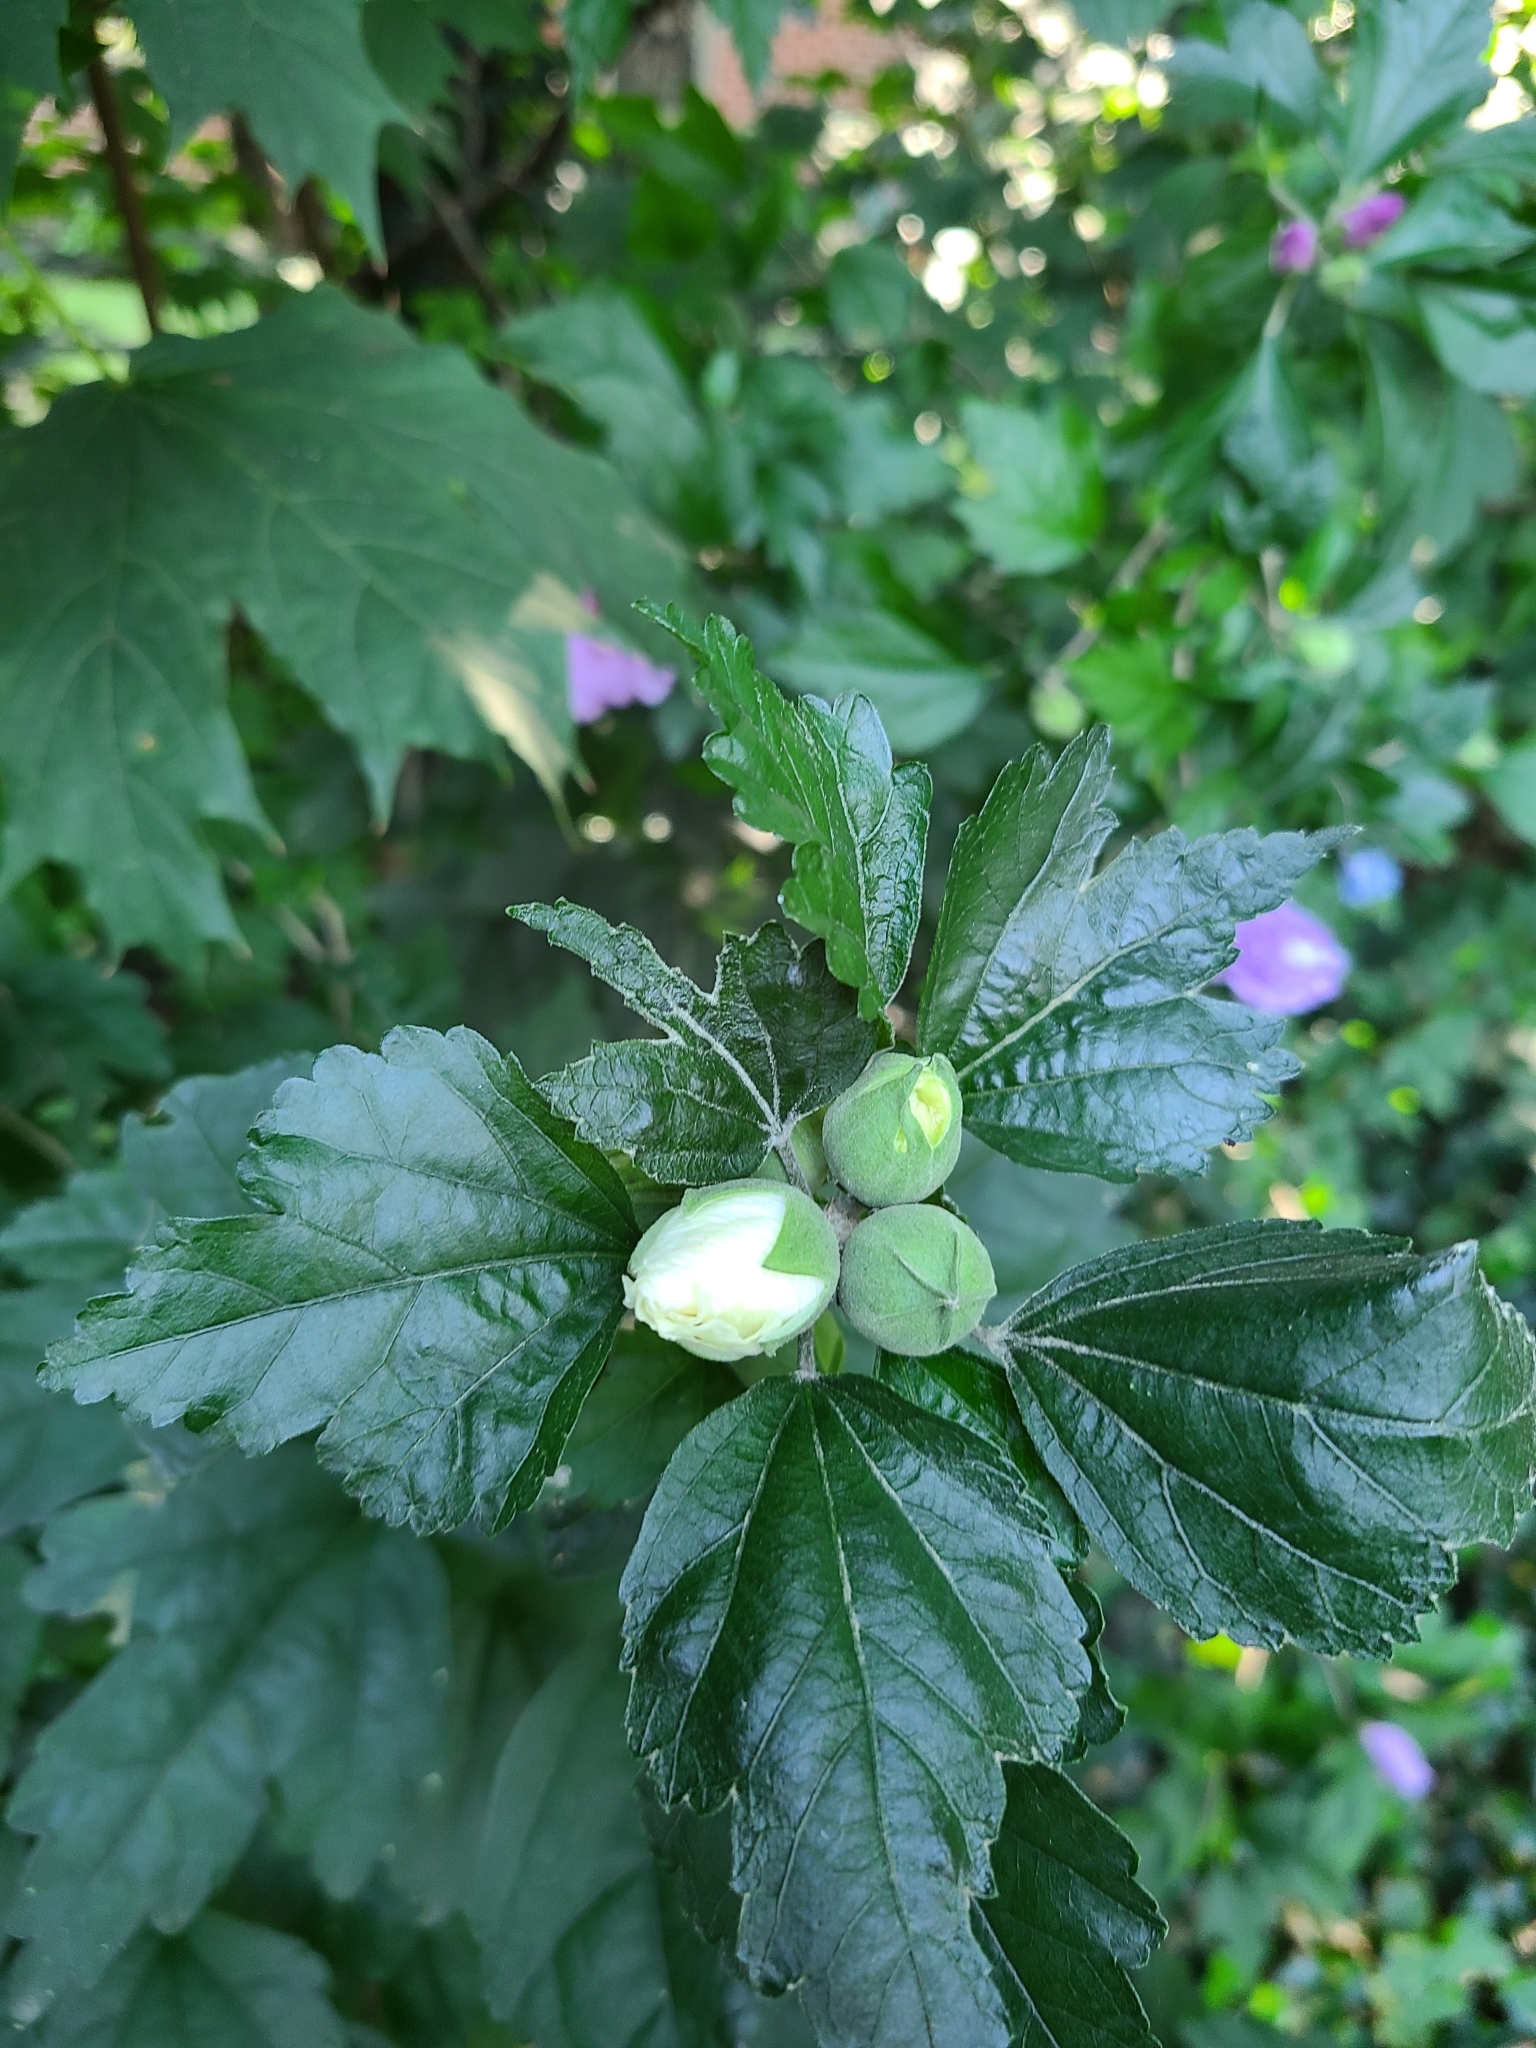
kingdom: Plantae
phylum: Tracheophyta
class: Magnoliopsida
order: Malvales
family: Malvaceae
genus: Hibiscus
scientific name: Hibiscus syriacus
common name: Syrian ketmia
